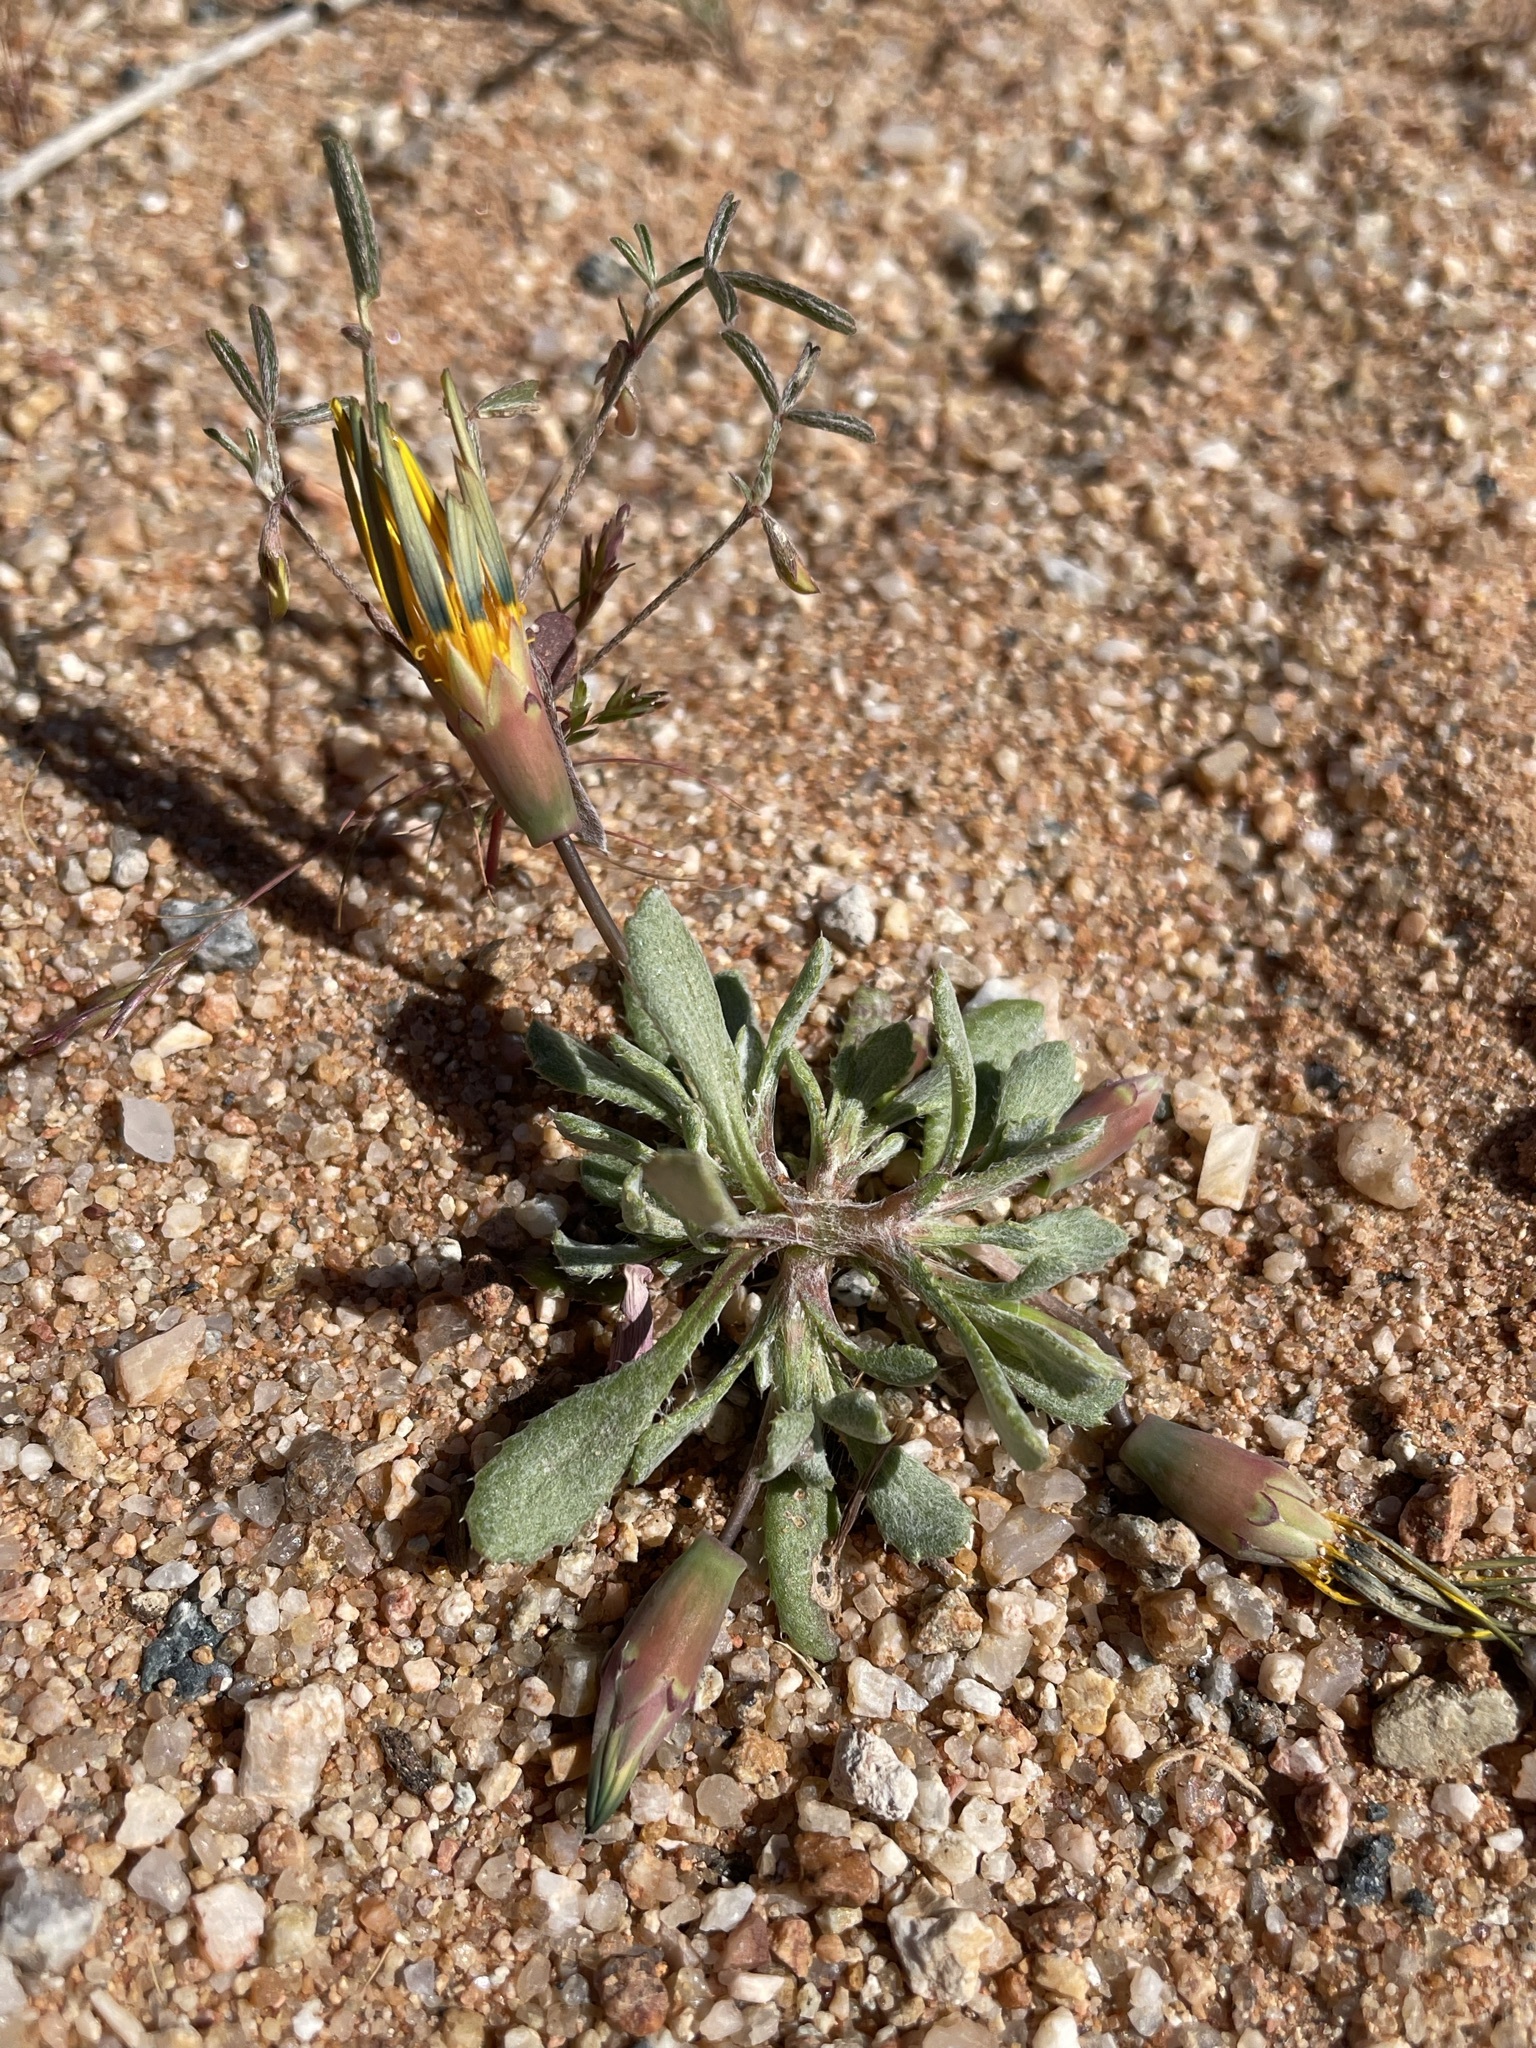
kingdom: Plantae
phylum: Tracheophyta
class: Magnoliopsida
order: Asterales
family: Asteraceae
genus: Gazania
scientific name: Gazania lichtensteinii
